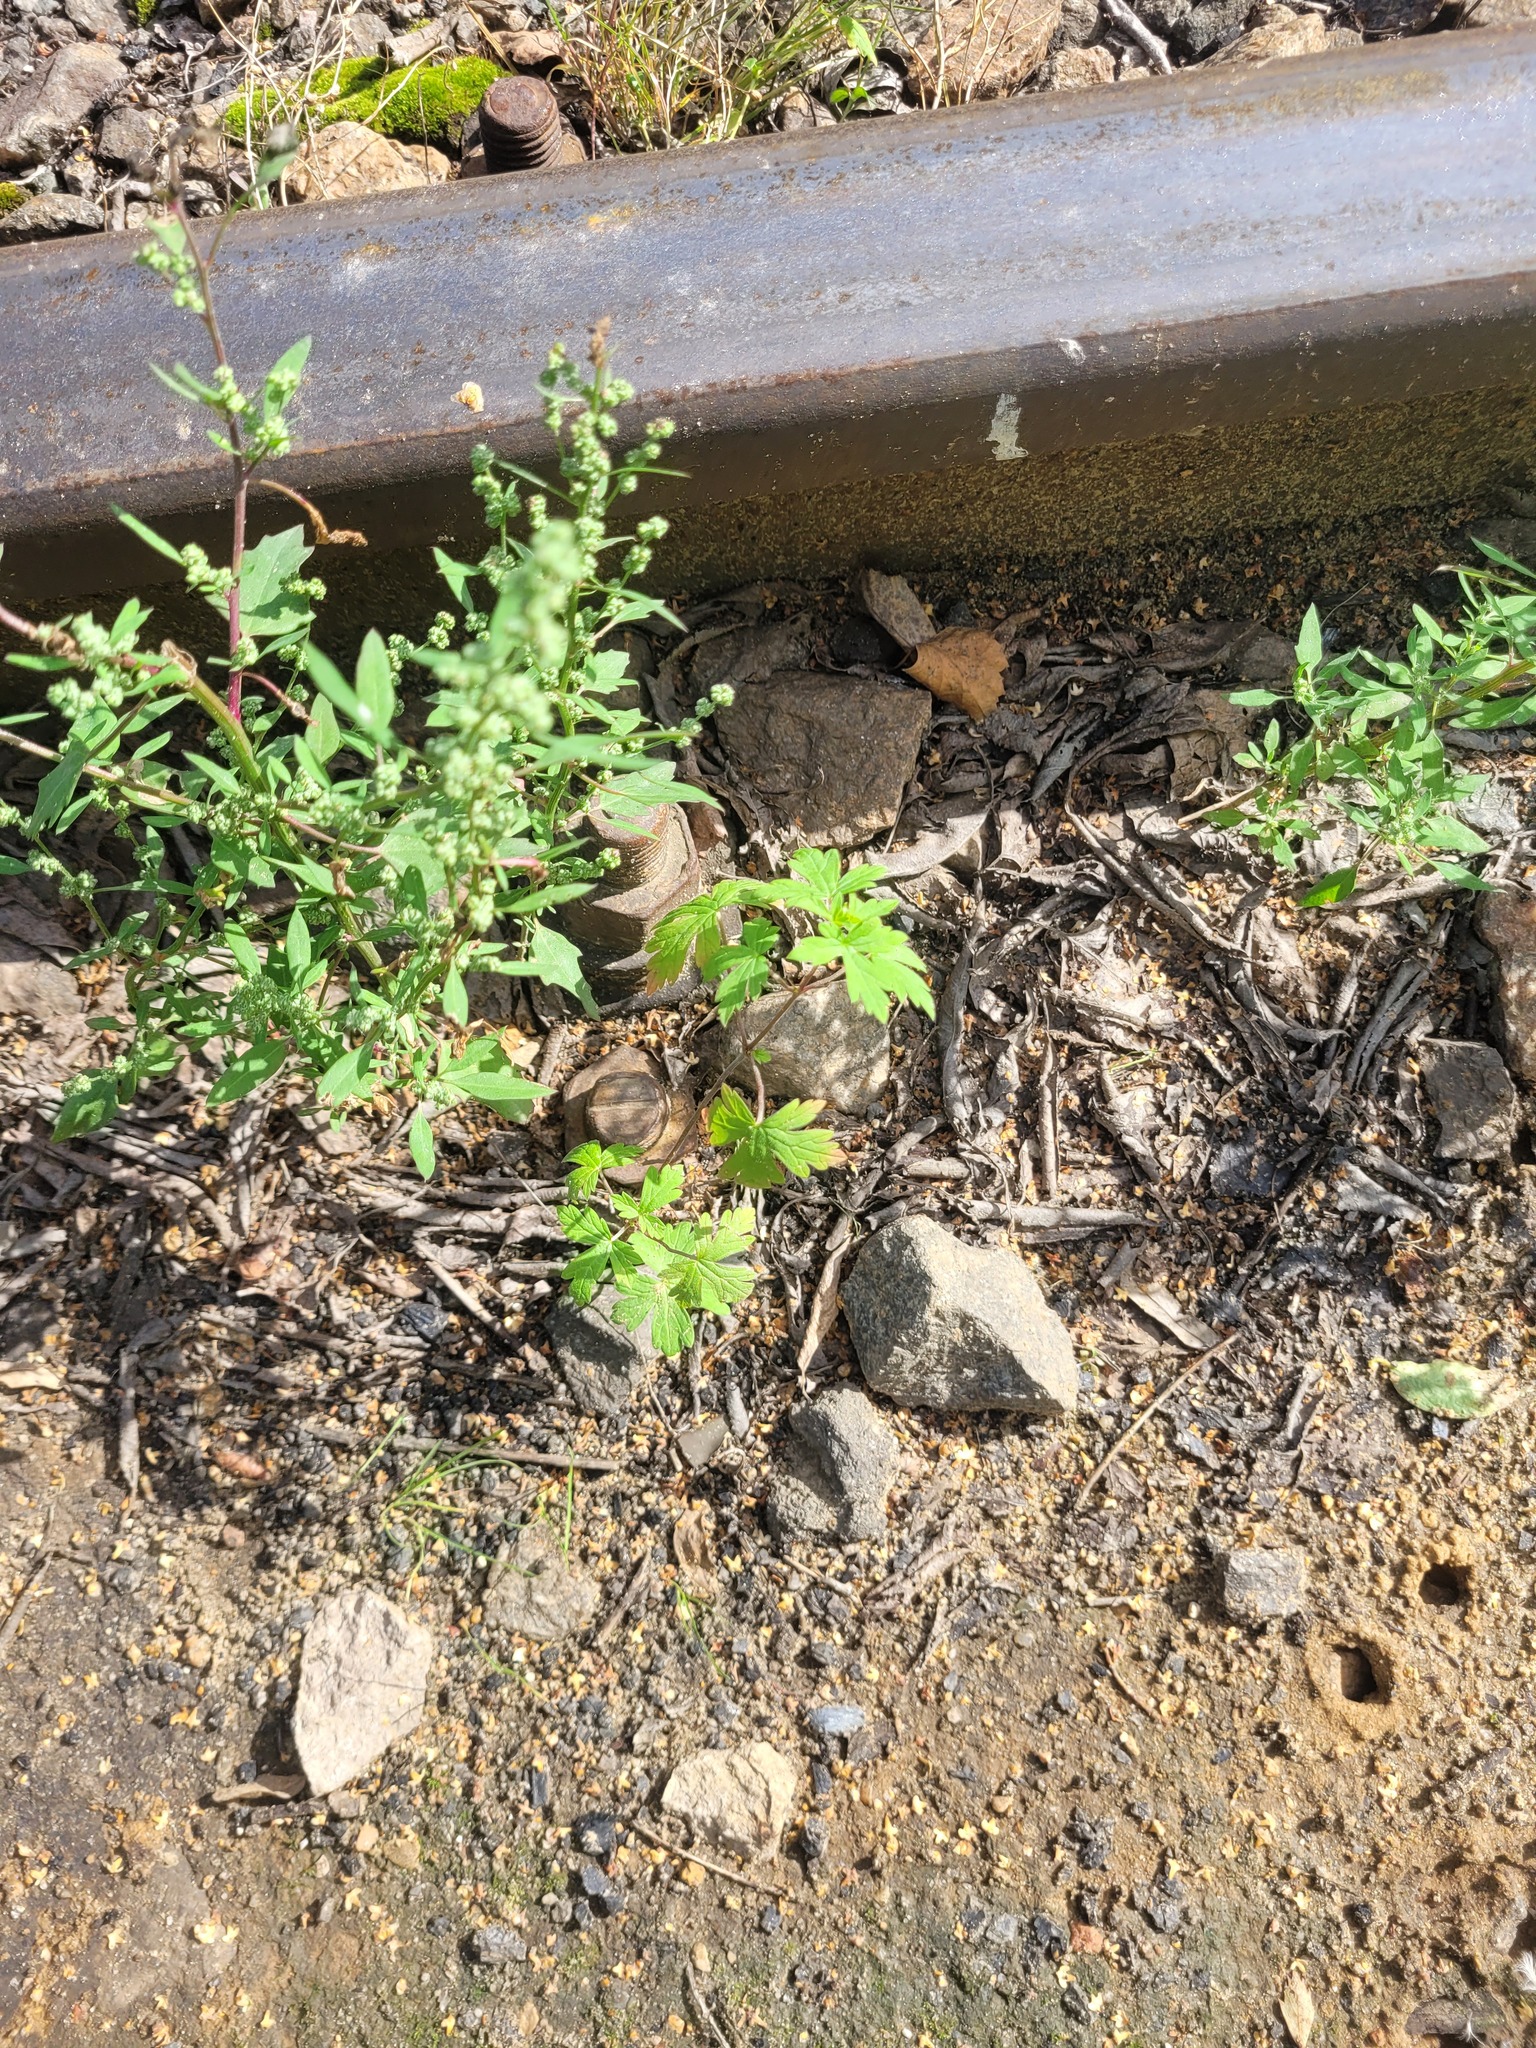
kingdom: Plantae
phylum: Tracheophyta
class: Magnoliopsida
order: Geraniales
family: Geraniaceae
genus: Geranium
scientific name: Geranium sibiricum
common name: Siberian crane's-bill
